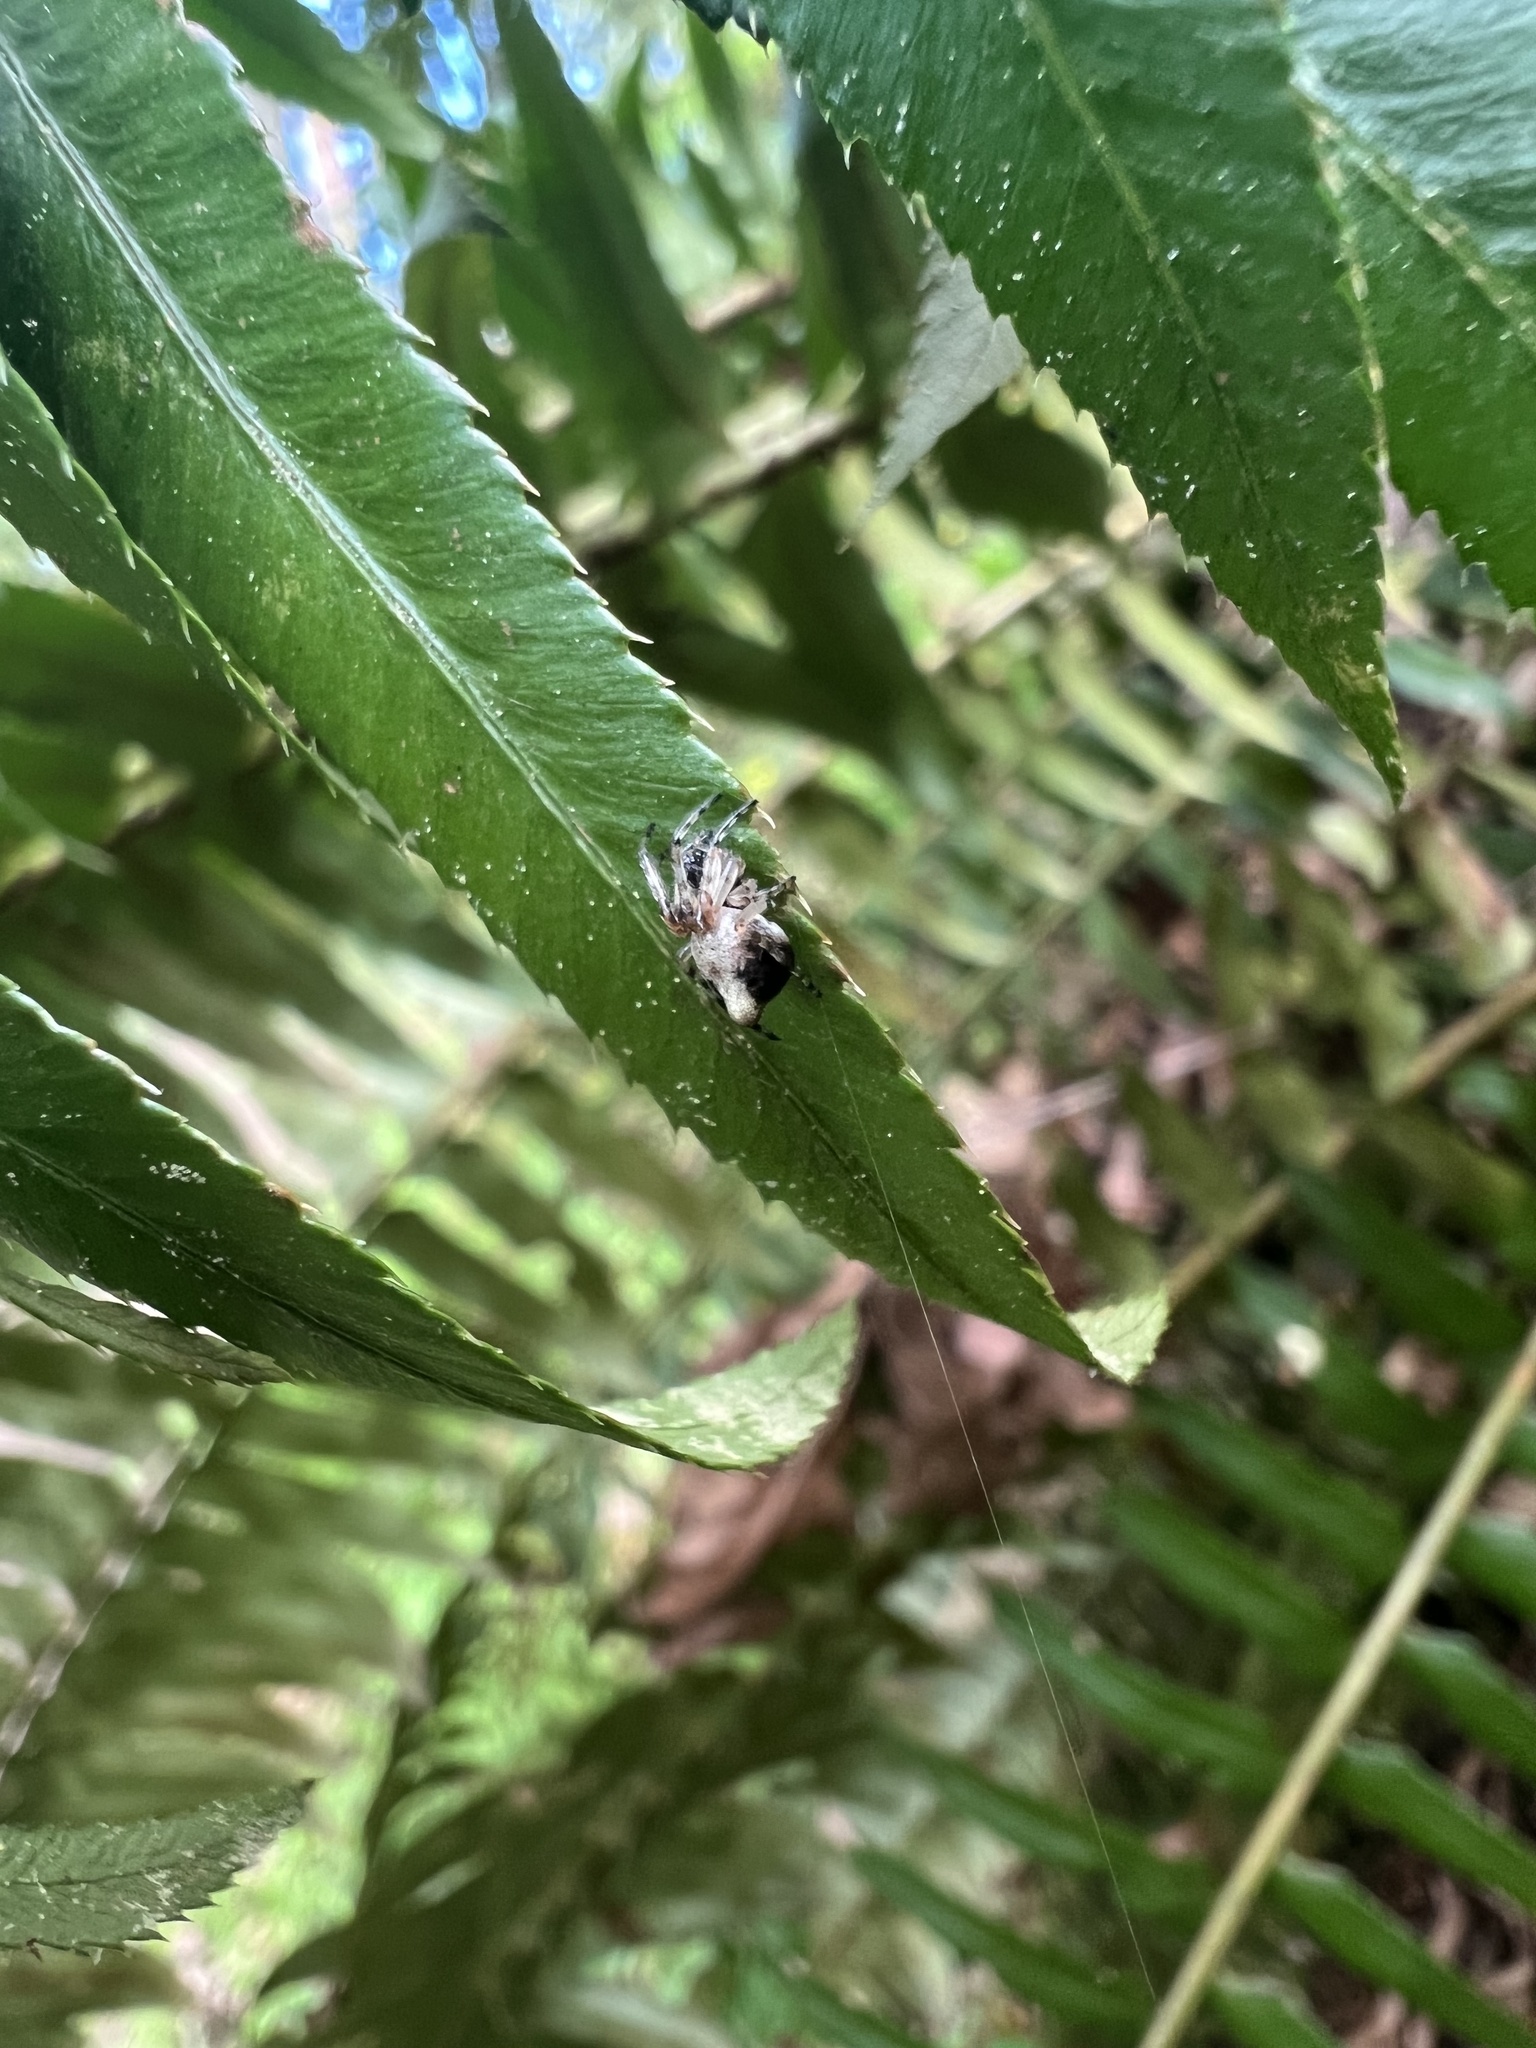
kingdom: Animalia
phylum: Arthropoda
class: Arachnida
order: Araneae
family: Araneidae
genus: Cyclosa
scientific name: Cyclosa conica
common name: Conical trashline orbweaver
